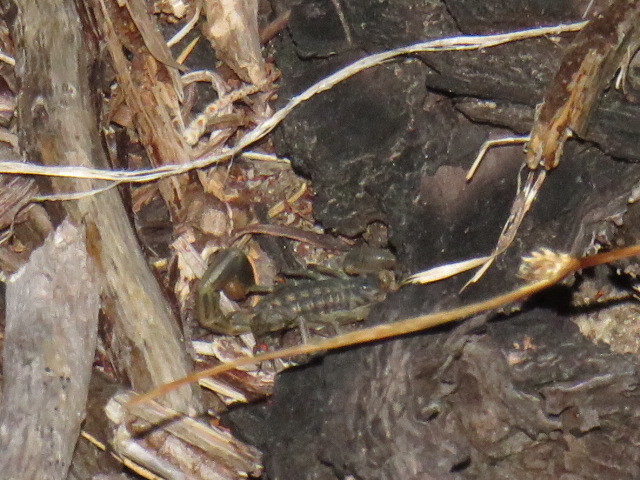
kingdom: Animalia
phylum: Arthropoda
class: Arachnida
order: Scorpiones
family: Buthidae
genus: Uroplectes
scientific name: Uroplectes lineatus
